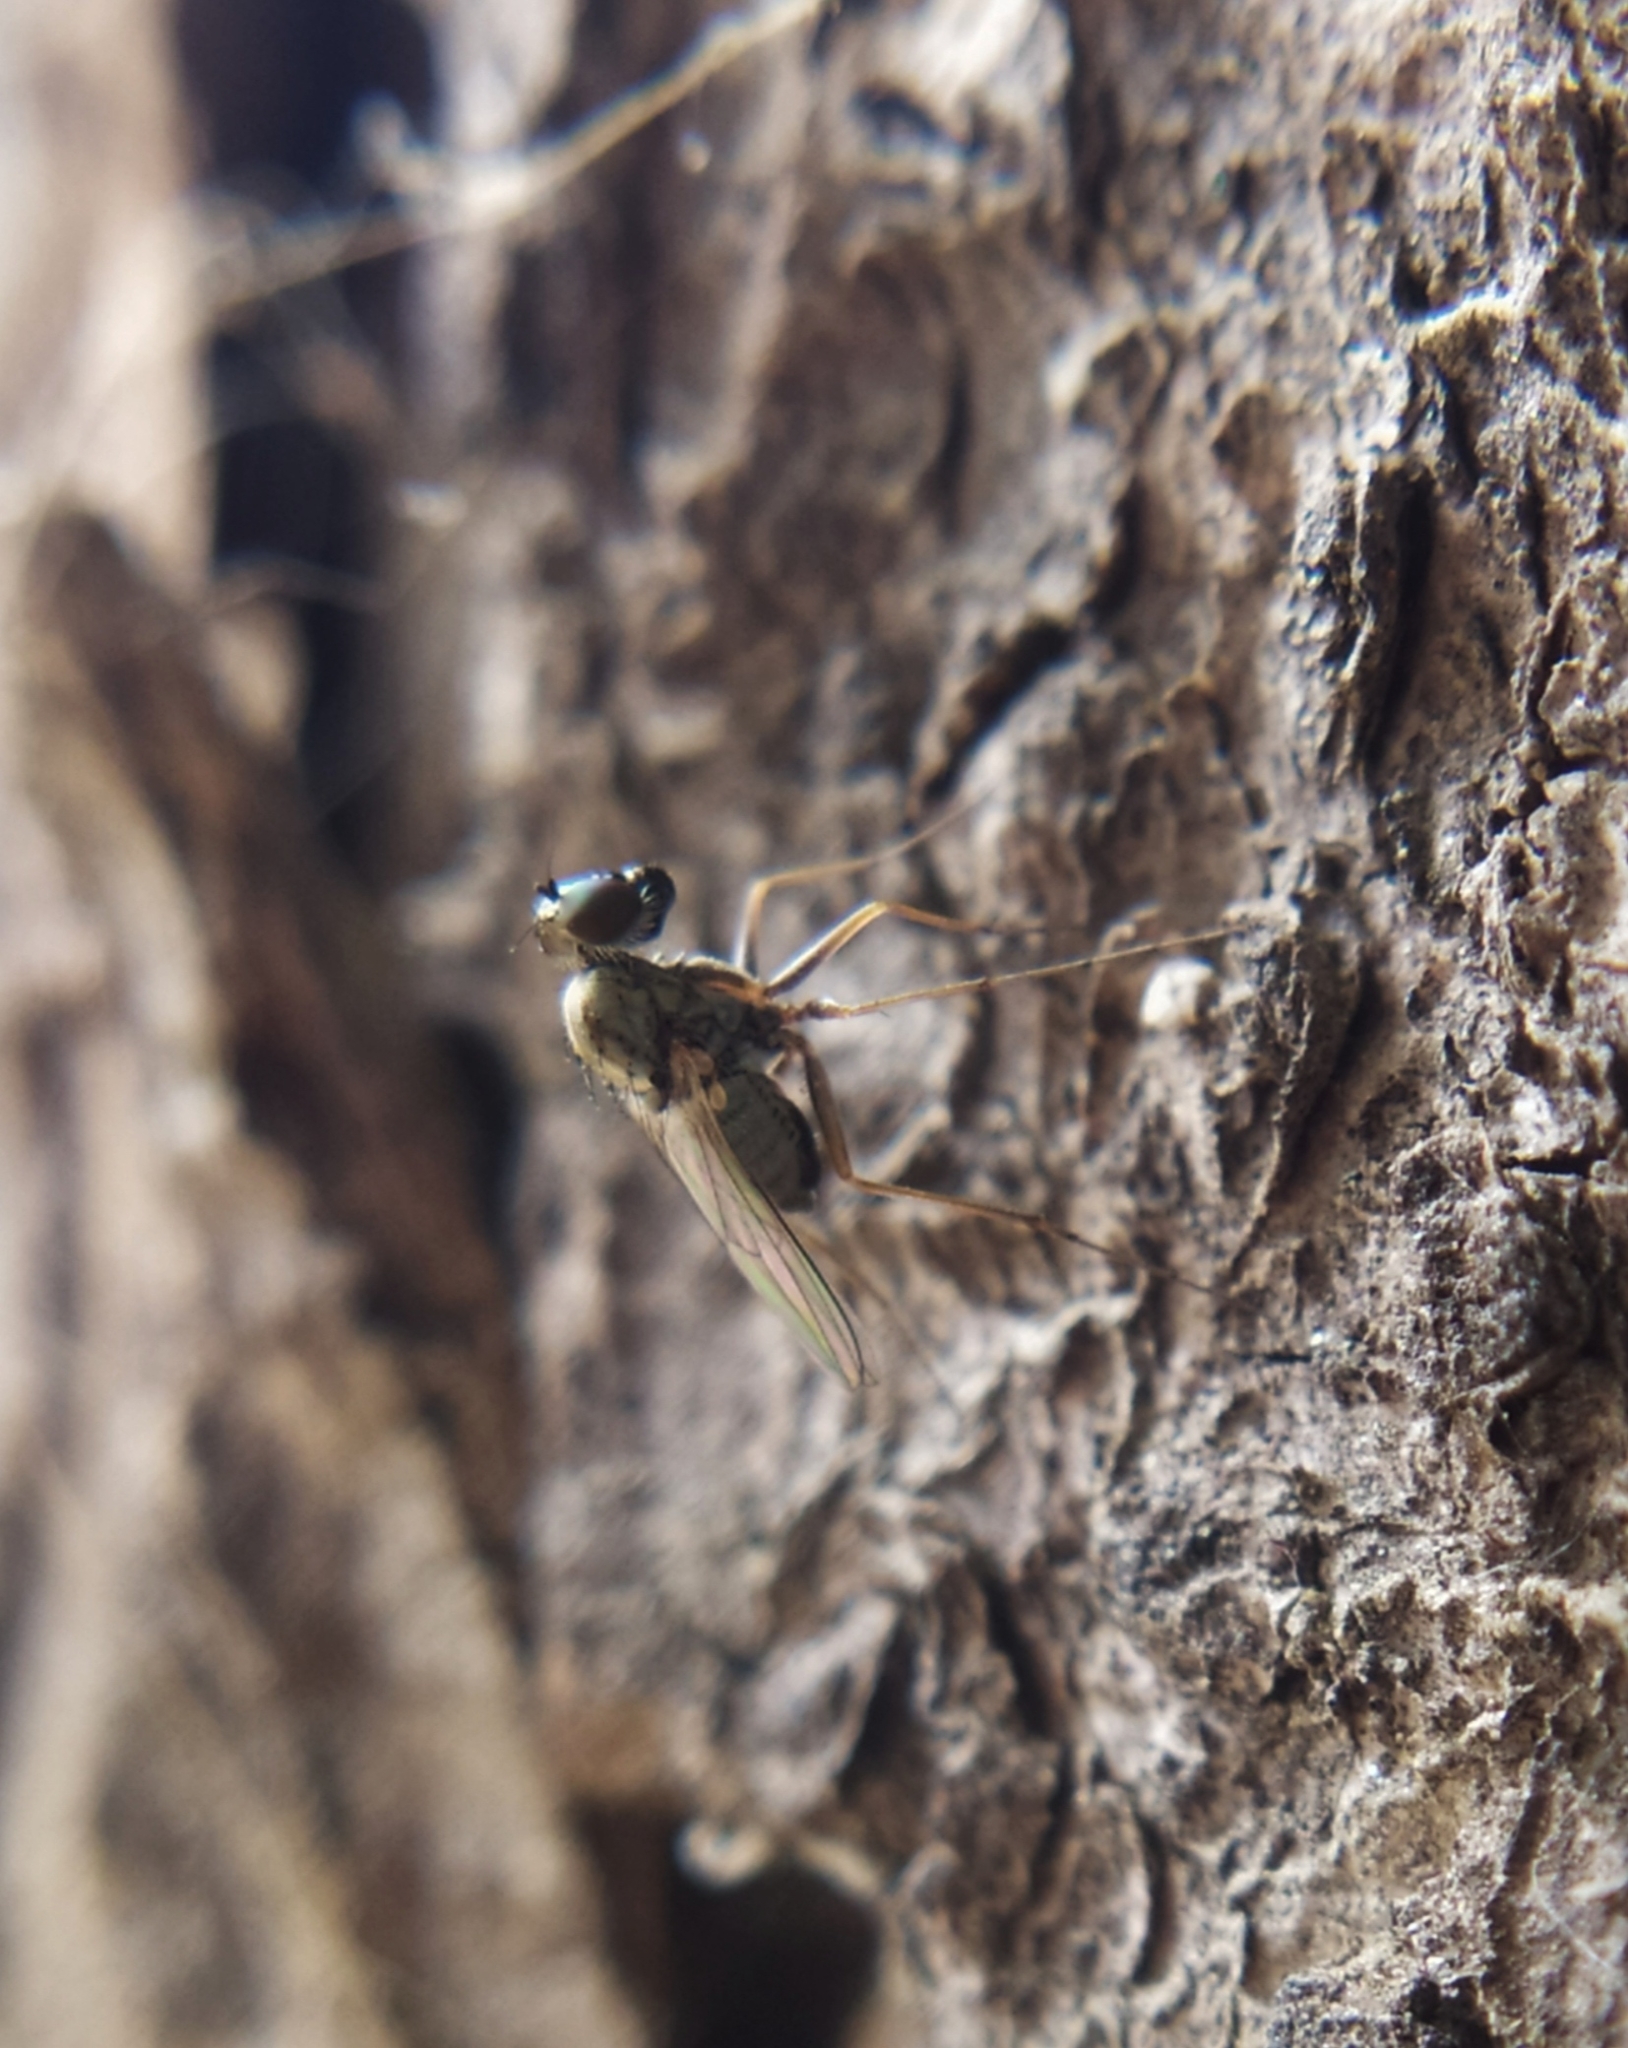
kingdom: Animalia
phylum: Arthropoda
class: Insecta
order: Diptera
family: Dolichopodidae
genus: Medetera
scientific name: Medetera diadema
